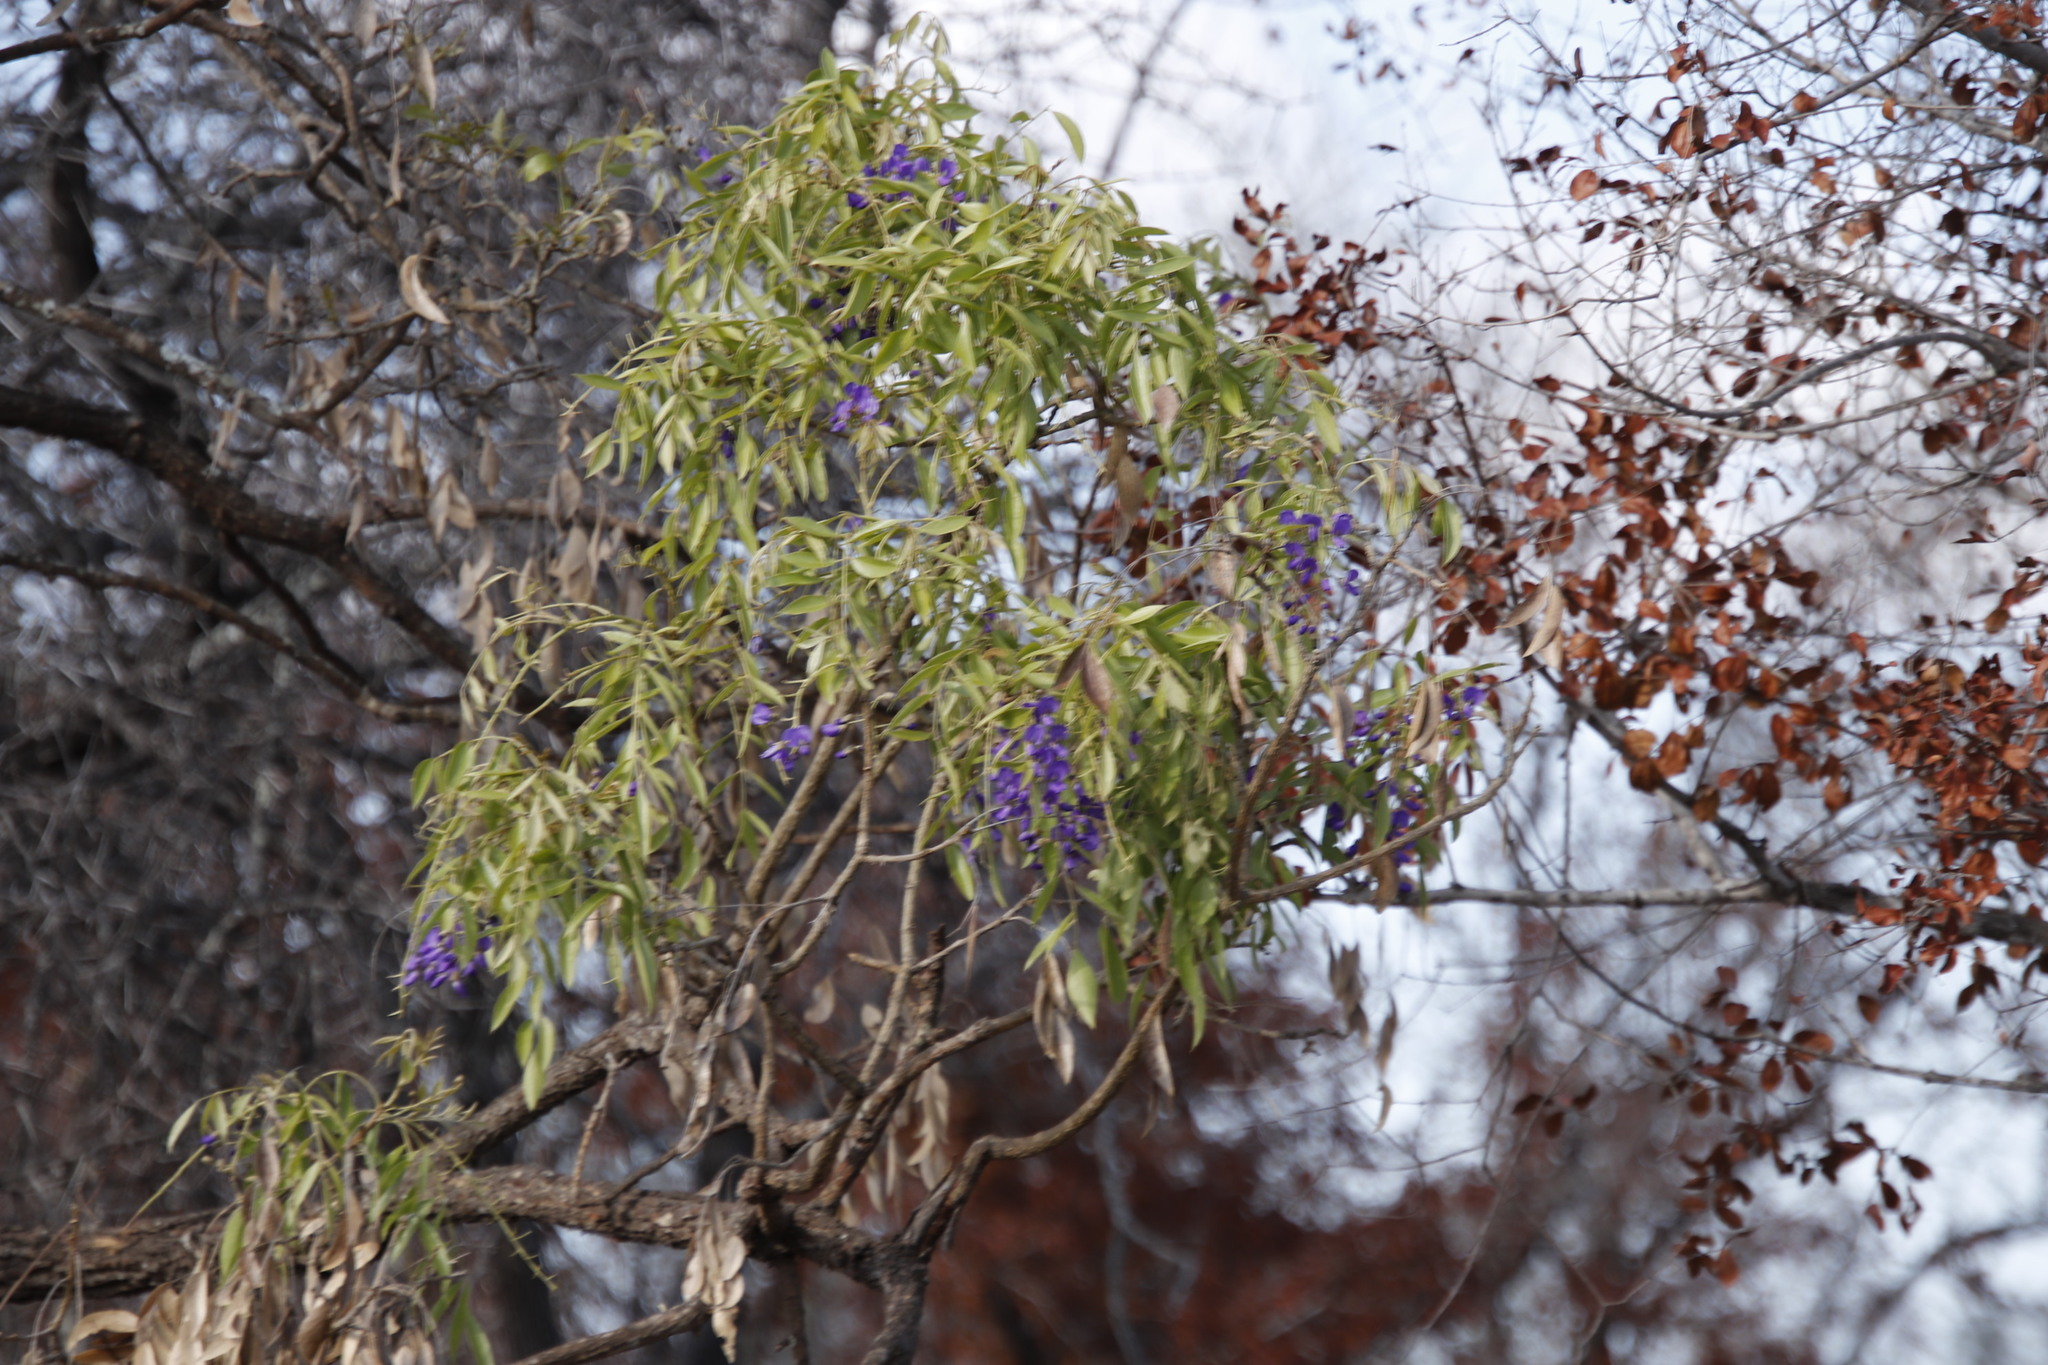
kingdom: Plantae
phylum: Tracheophyta
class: Magnoliopsida
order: Fabales
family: Fabaceae
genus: Bolusanthus
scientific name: Bolusanthus speciosus
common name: Tree wisteria
